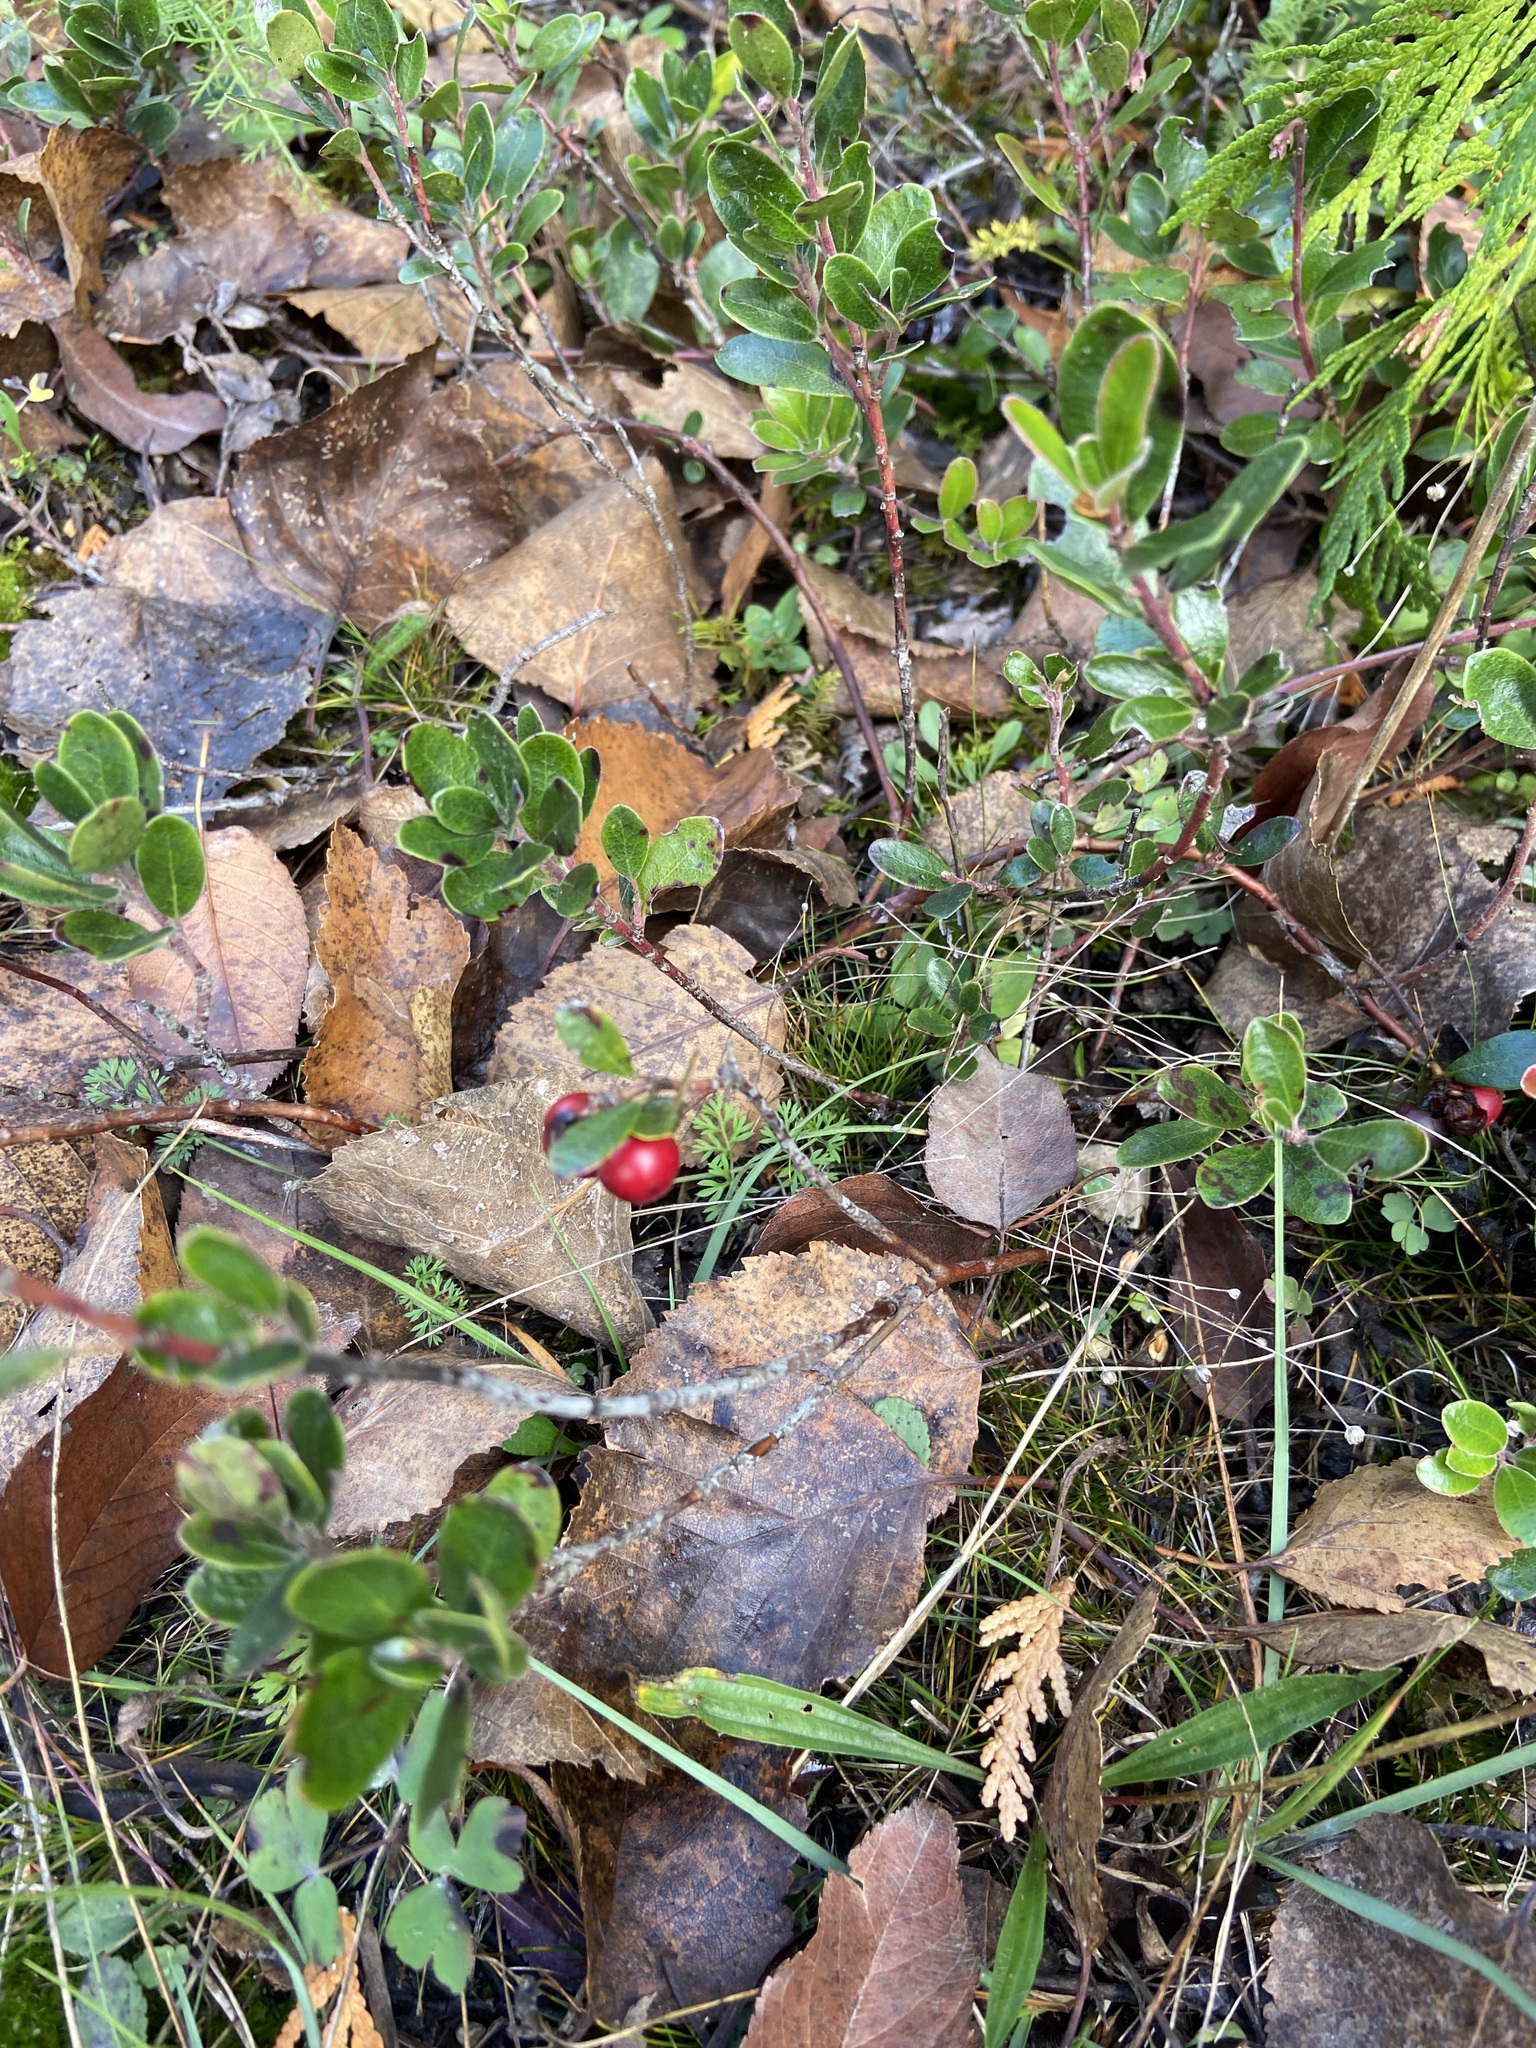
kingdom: Plantae
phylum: Tracheophyta
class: Magnoliopsida
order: Ericales
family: Ericaceae
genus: Arctostaphylos
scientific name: Arctostaphylos uva-ursi
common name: Bearberry
